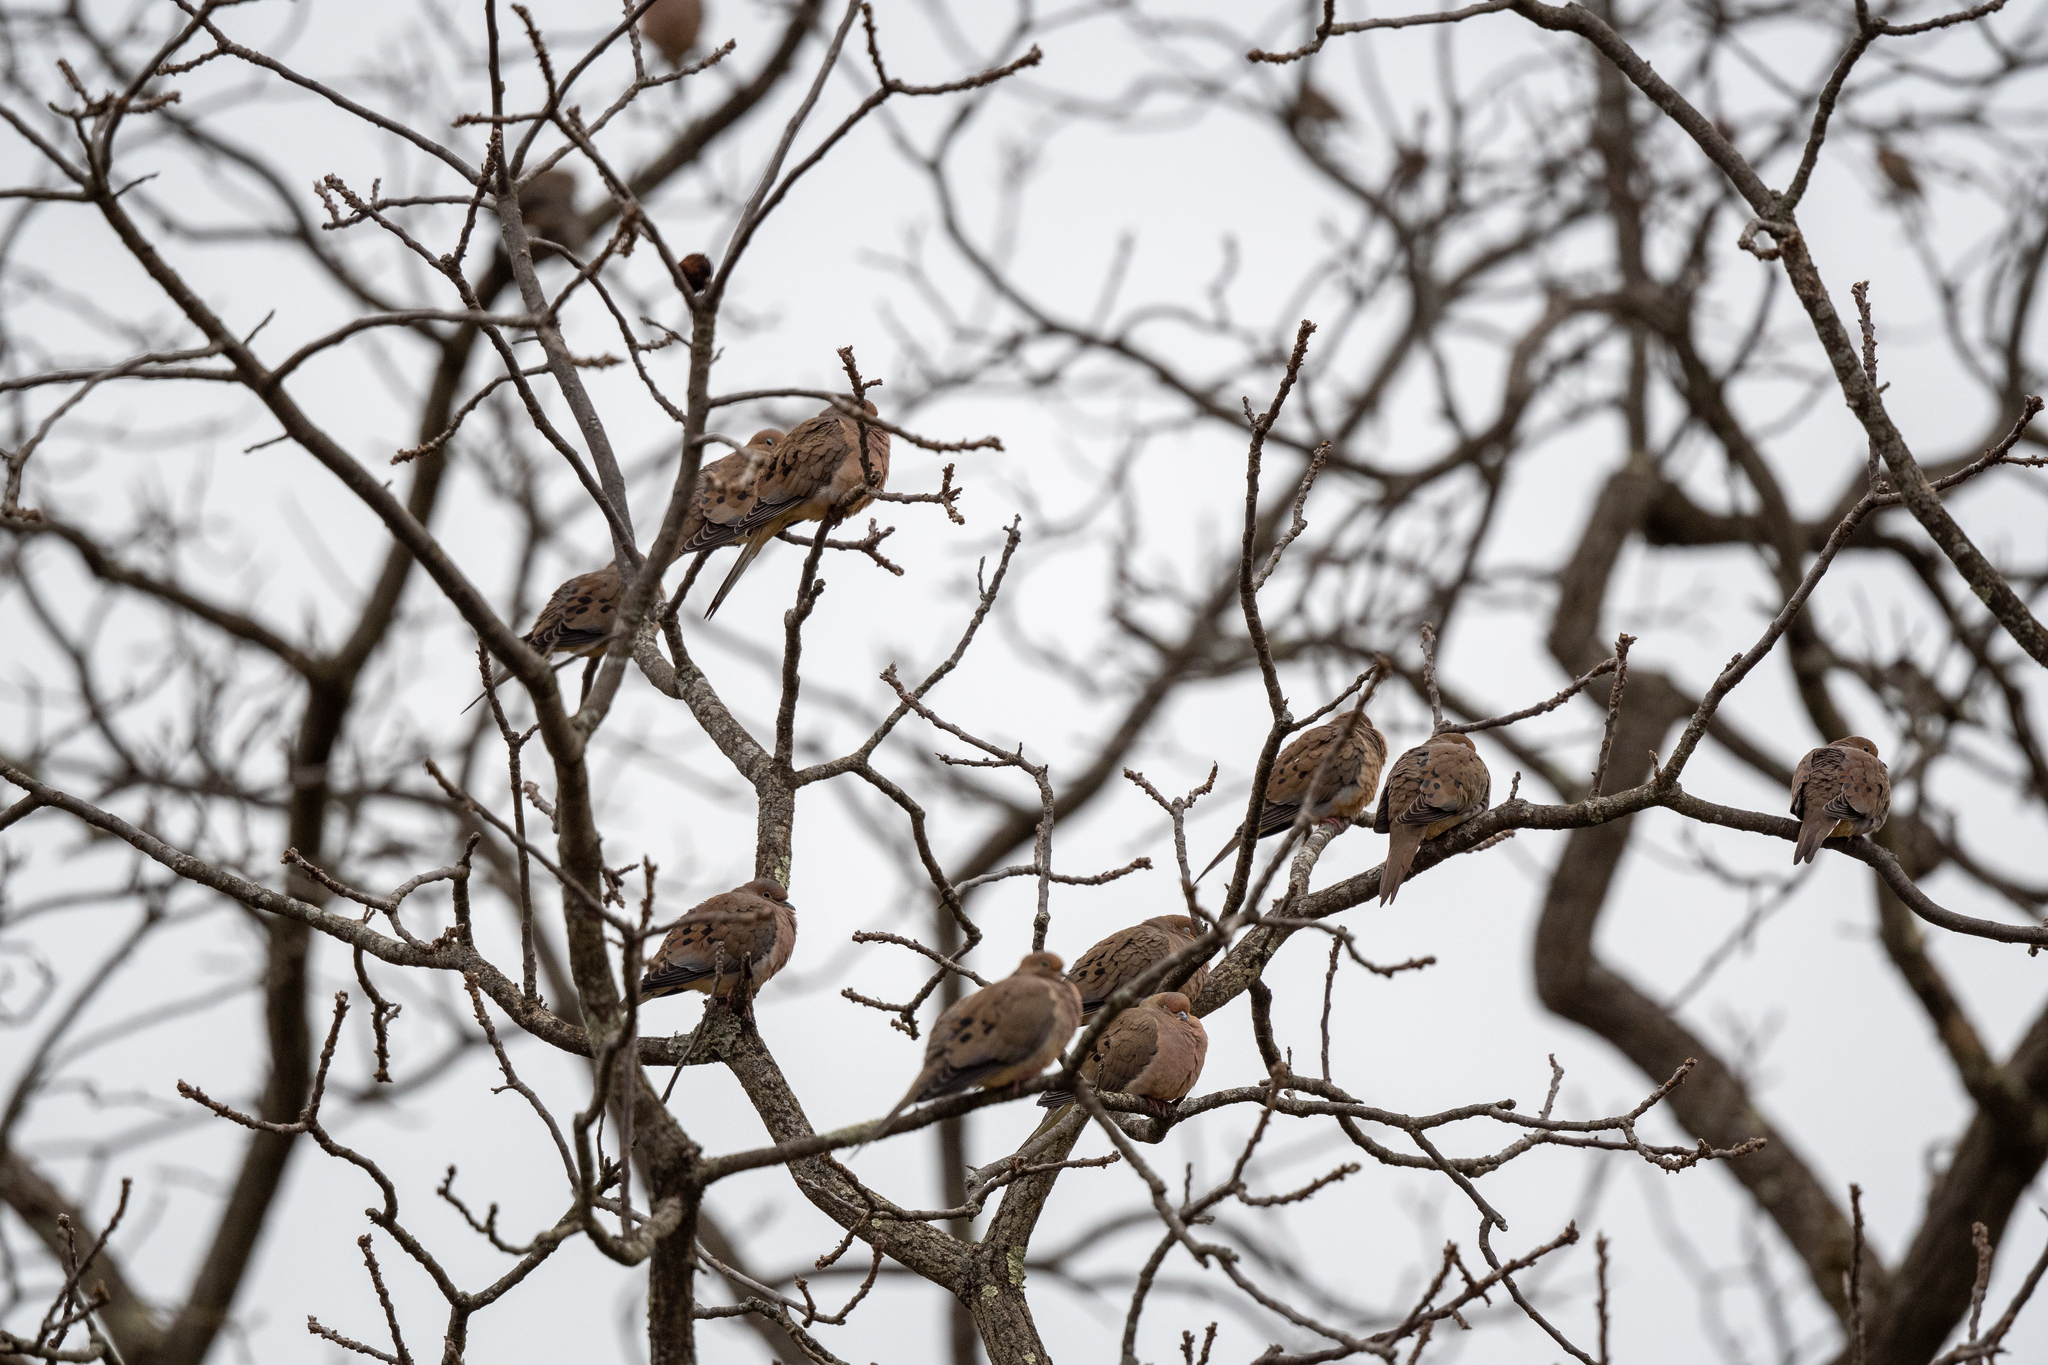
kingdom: Animalia
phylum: Chordata
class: Aves
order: Columbiformes
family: Columbidae
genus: Zenaida
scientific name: Zenaida macroura
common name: Mourning dove
